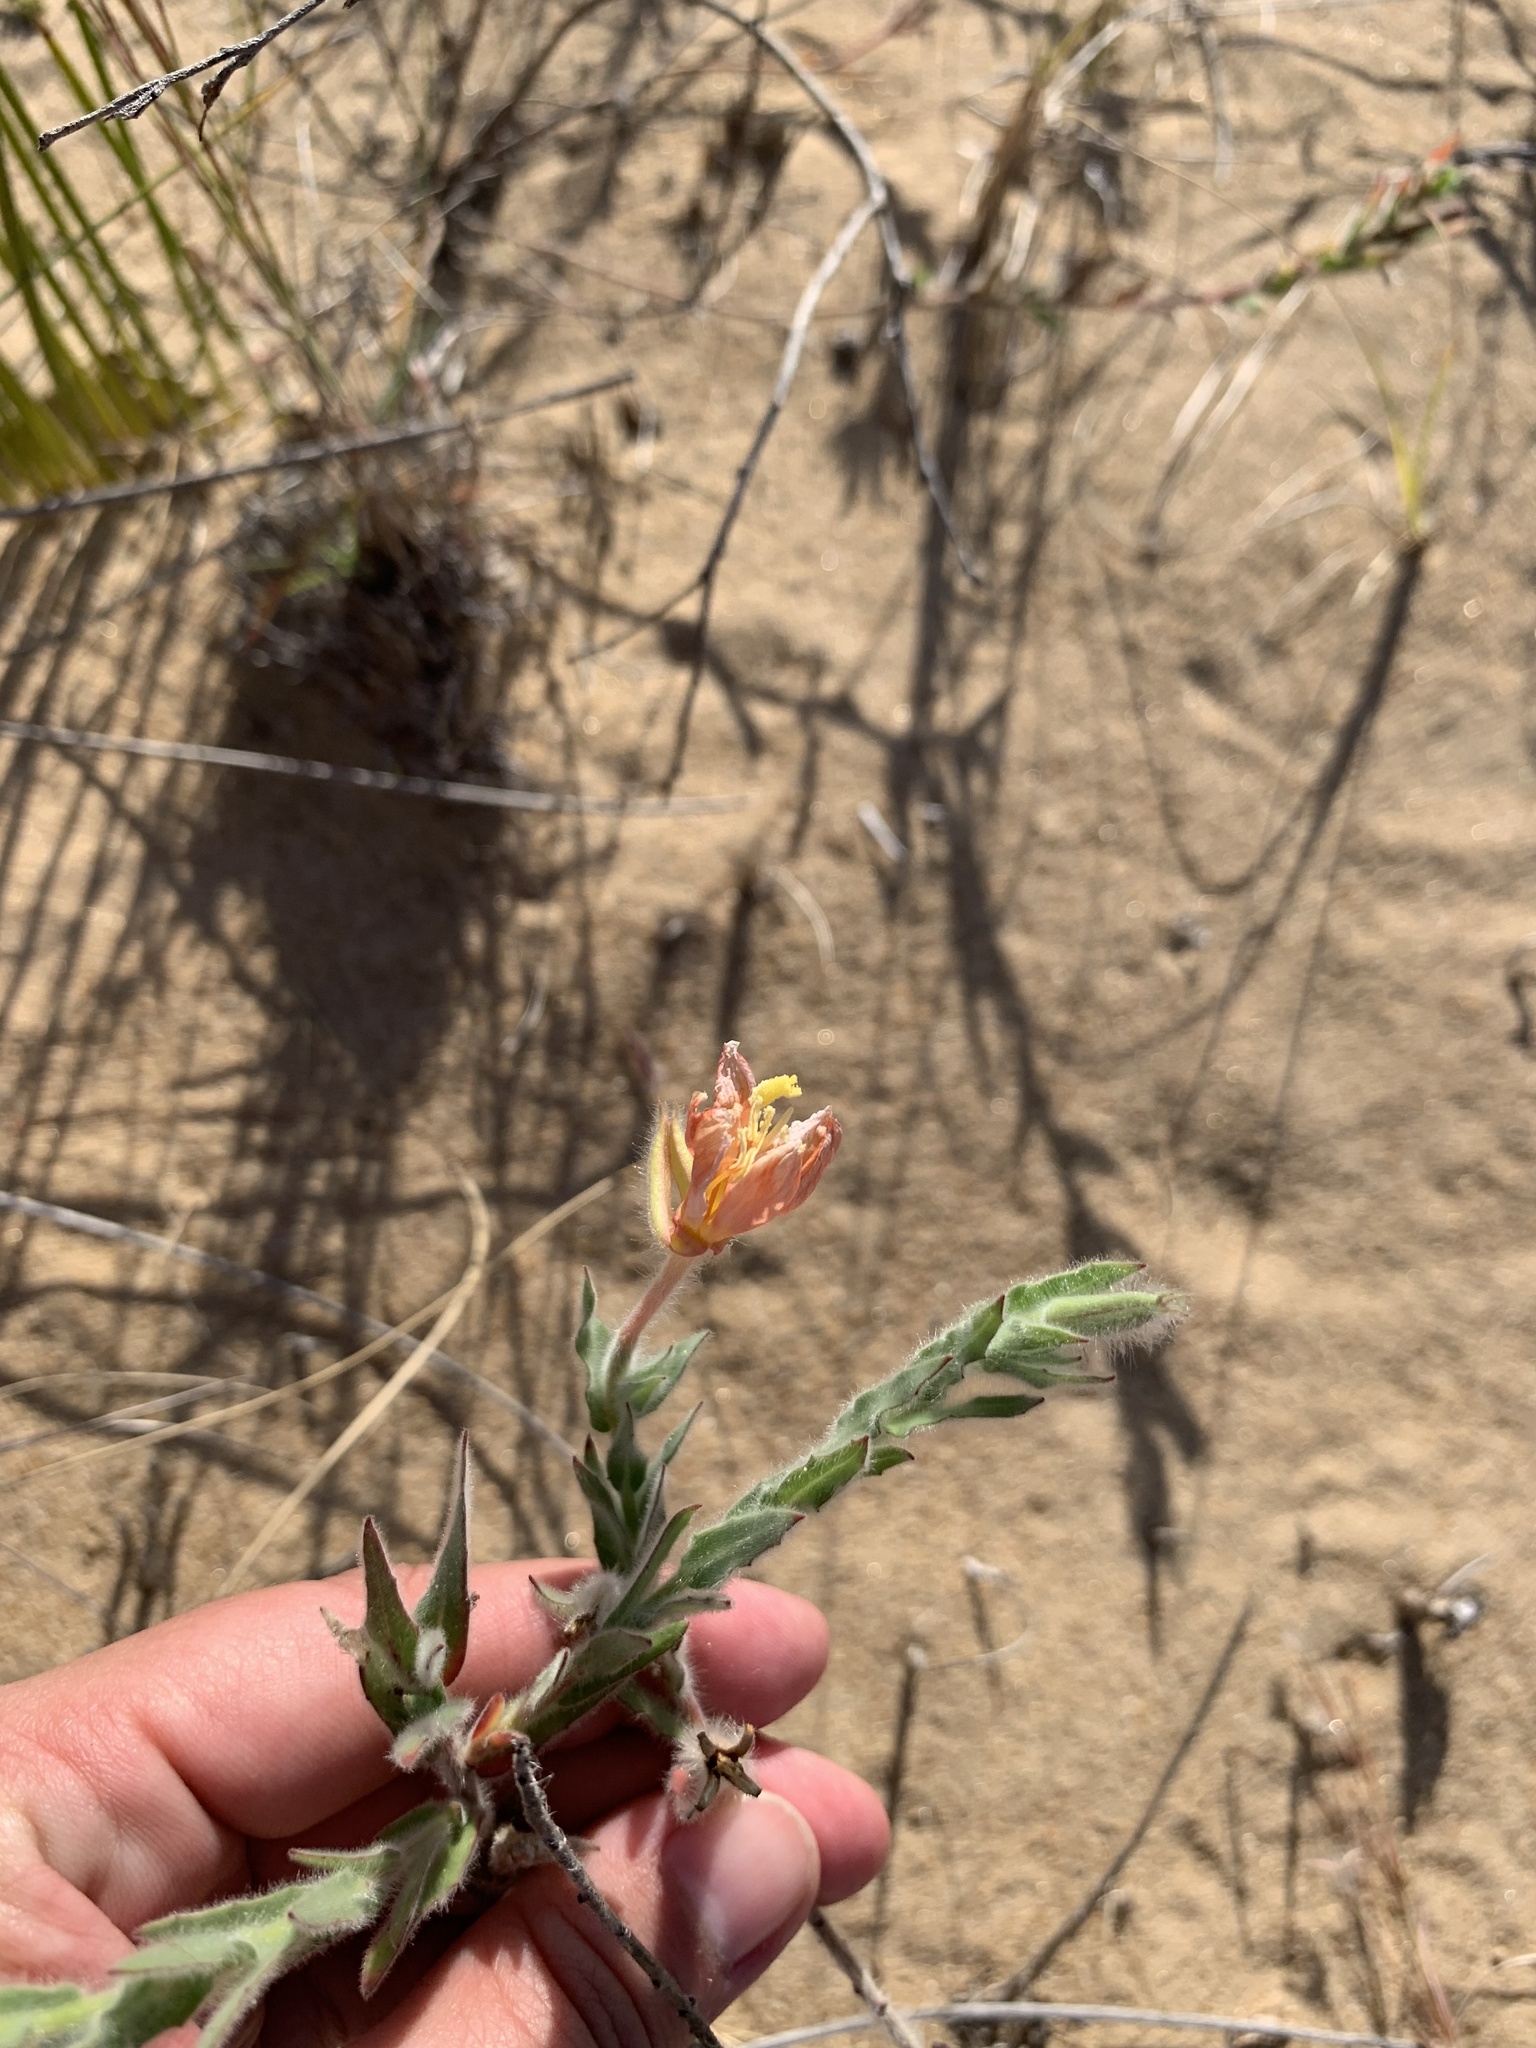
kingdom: Plantae
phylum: Tracheophyta
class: Magnoliopsida
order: Myrtales
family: Onagraceae
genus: Oenothera
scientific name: Oenothera mollissima
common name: Argentine evening primrose
